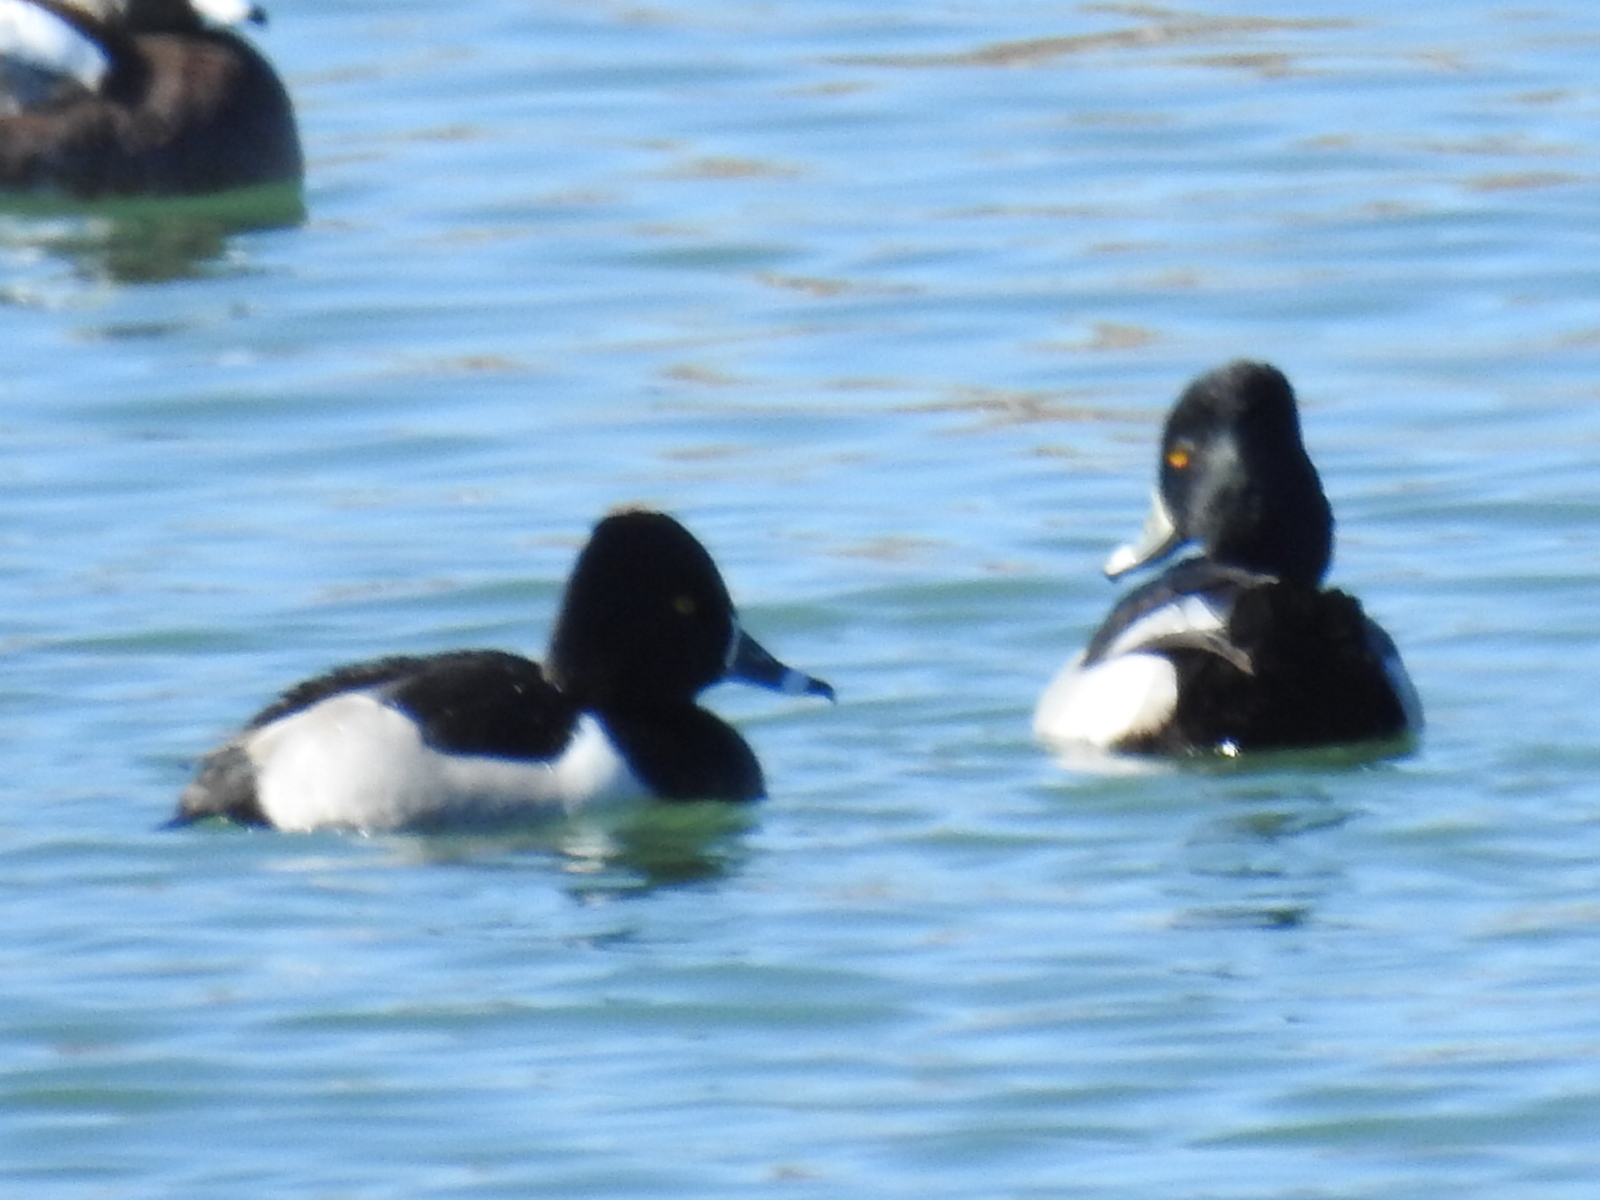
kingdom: Animalia
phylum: Chordata
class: Aves
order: Anseriformes
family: Anatidae
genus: Aythya
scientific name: Aythya collaris
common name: Ring-necked duck
